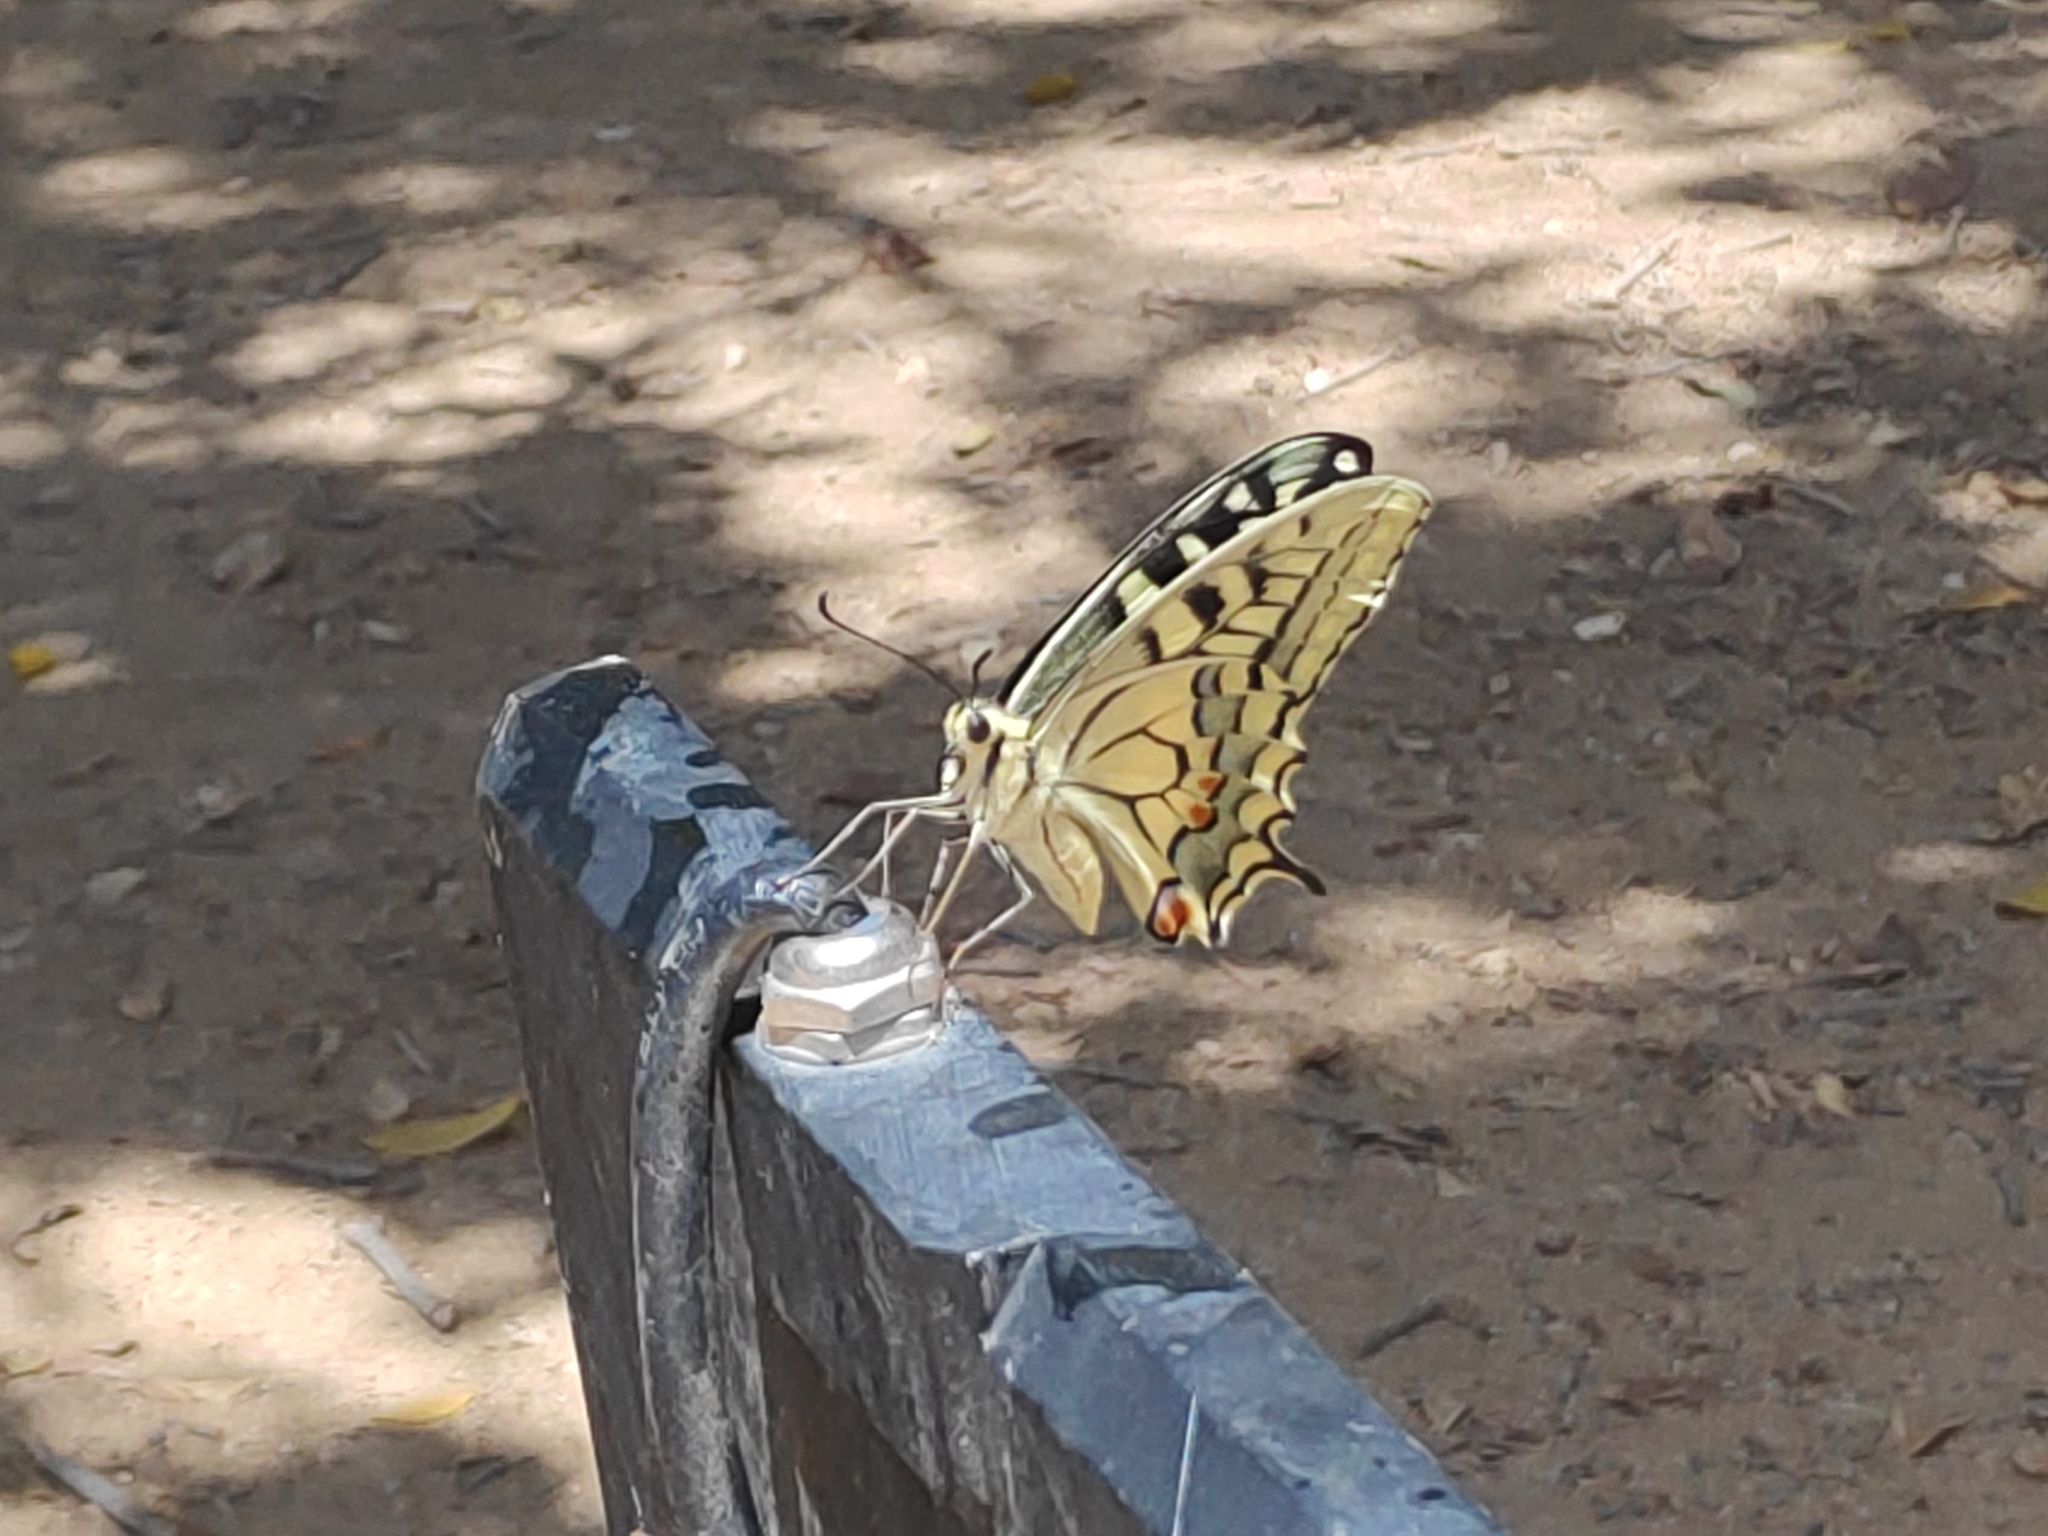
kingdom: Animalia
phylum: Arthropoda
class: Insecta
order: Lepidoptera
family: Papilionidae
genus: Papilio
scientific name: Papilio machaon
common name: Swallowtail
